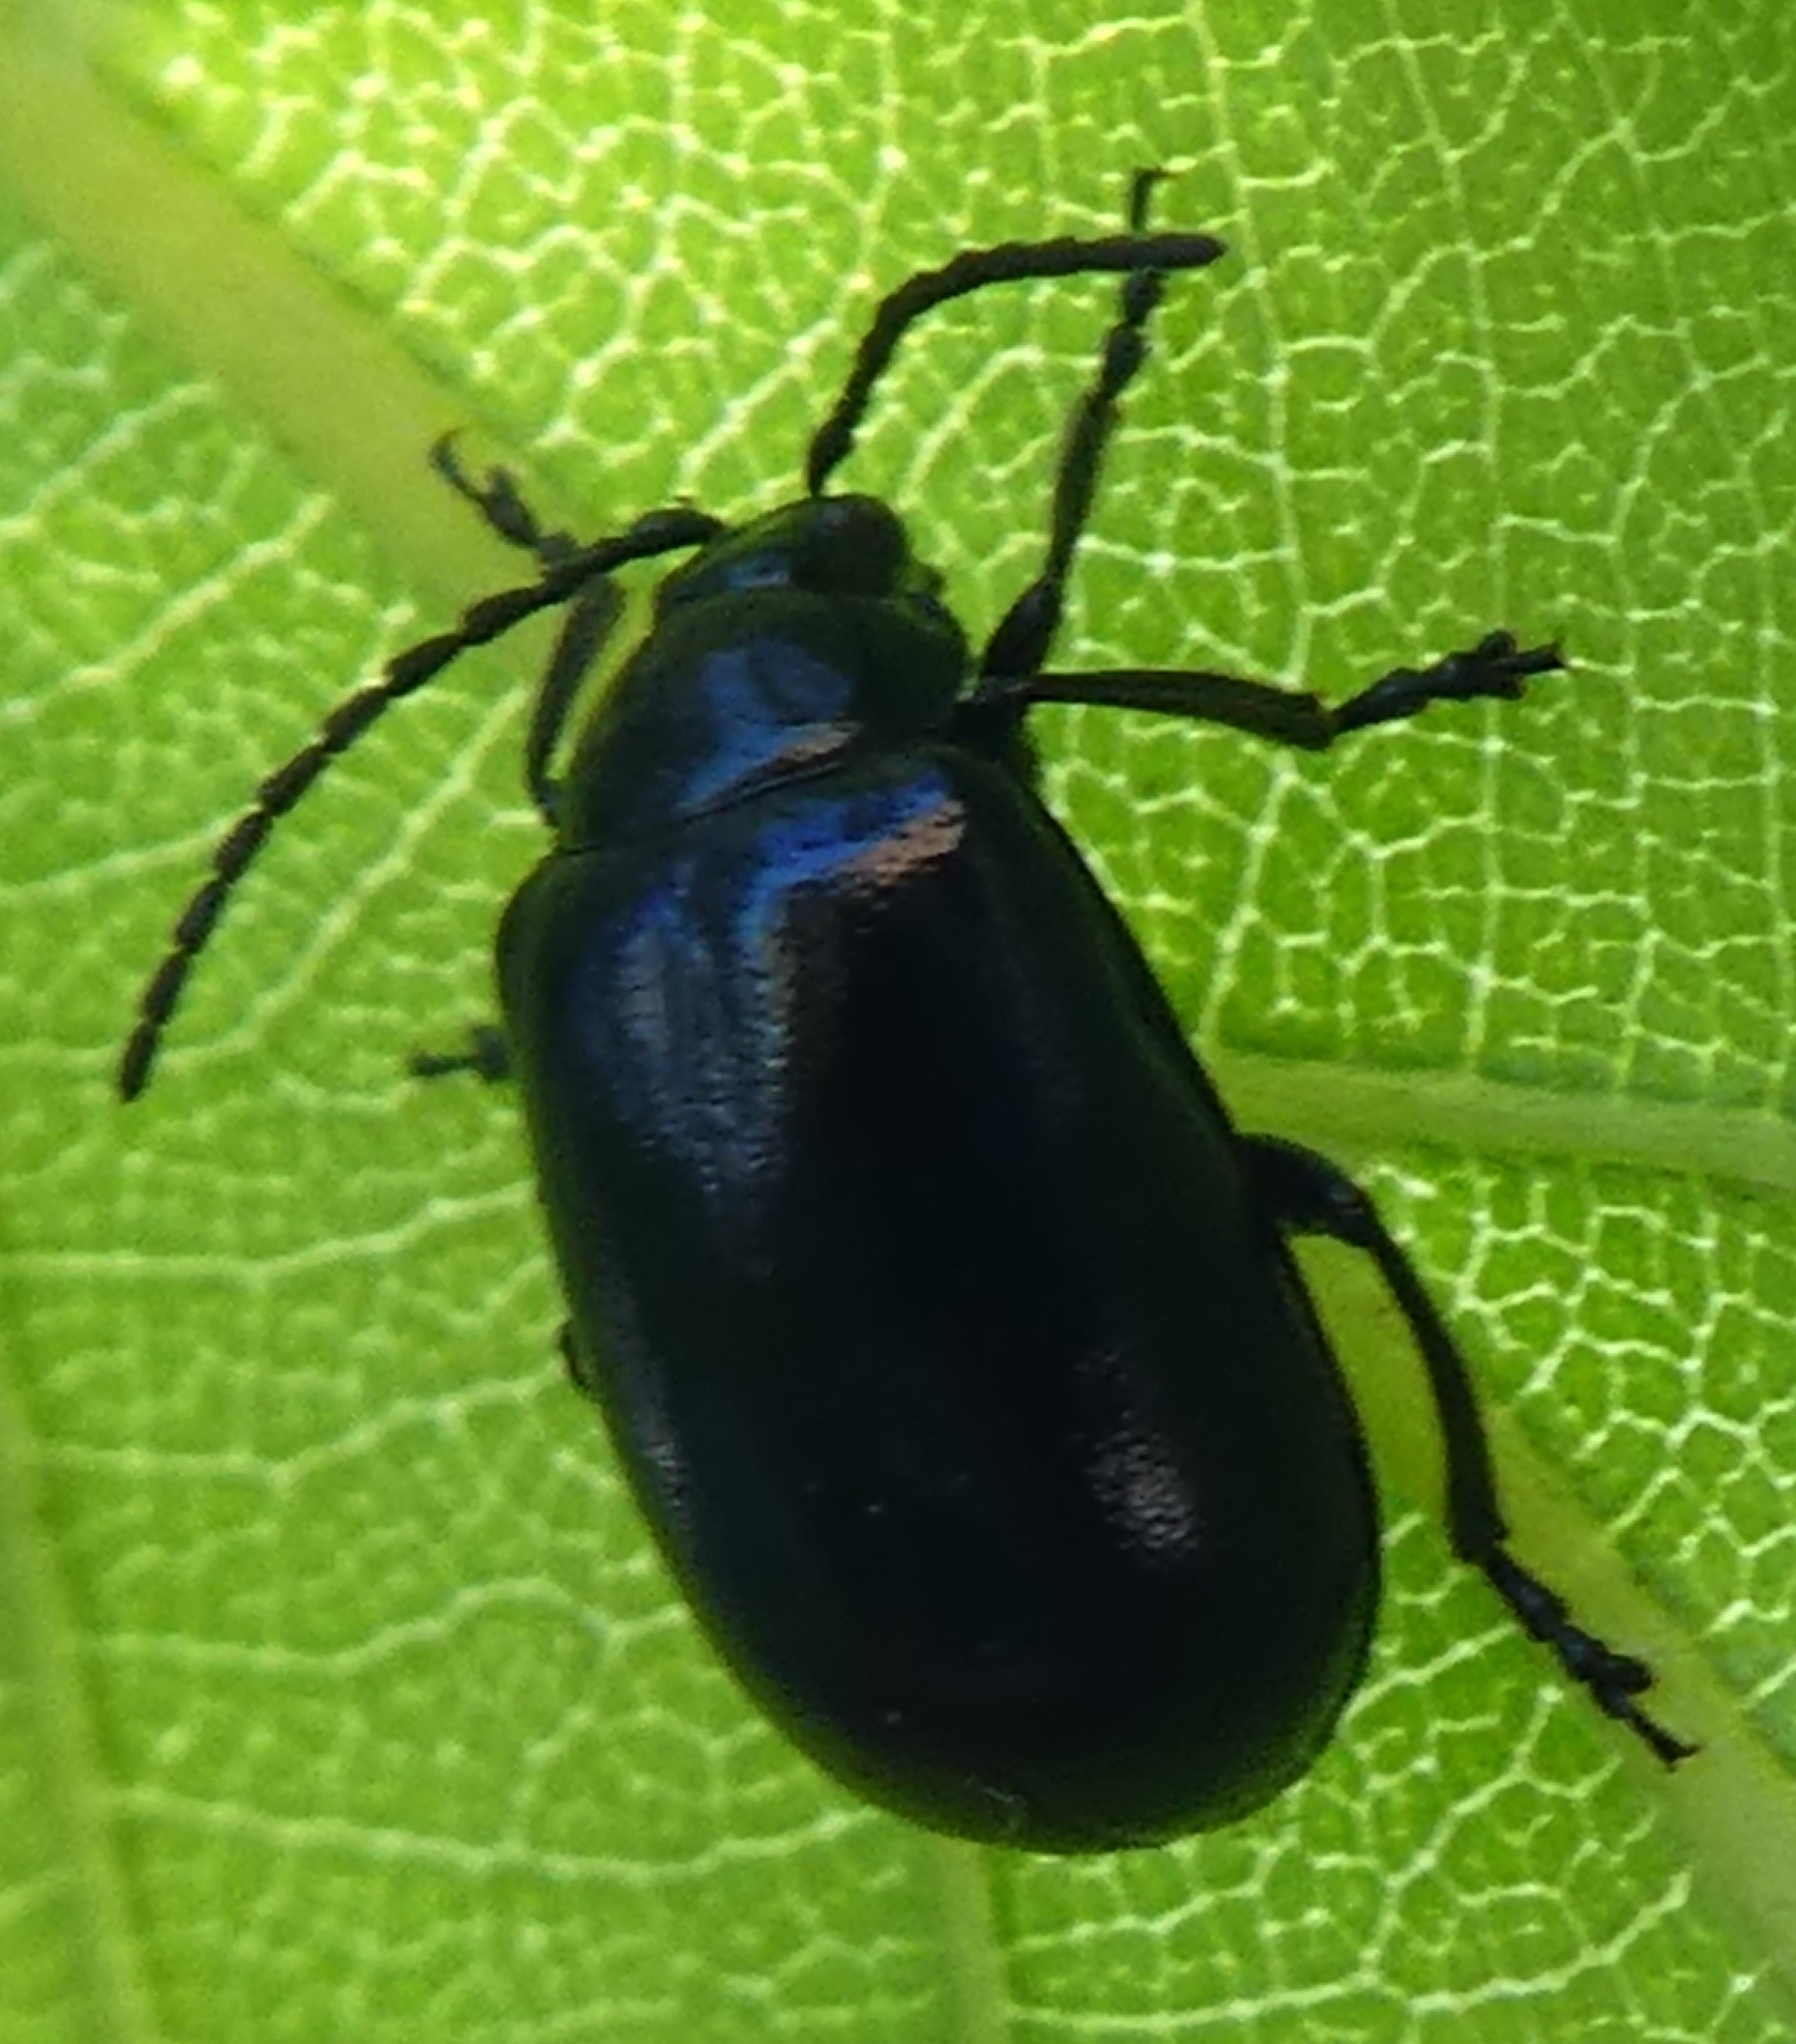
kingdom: Animalia
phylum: Arthropoda
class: Insecta
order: Coleoptera
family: Chrysomelidae
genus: Agelastica
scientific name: Agelastica alni
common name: Alder leaf beetle
